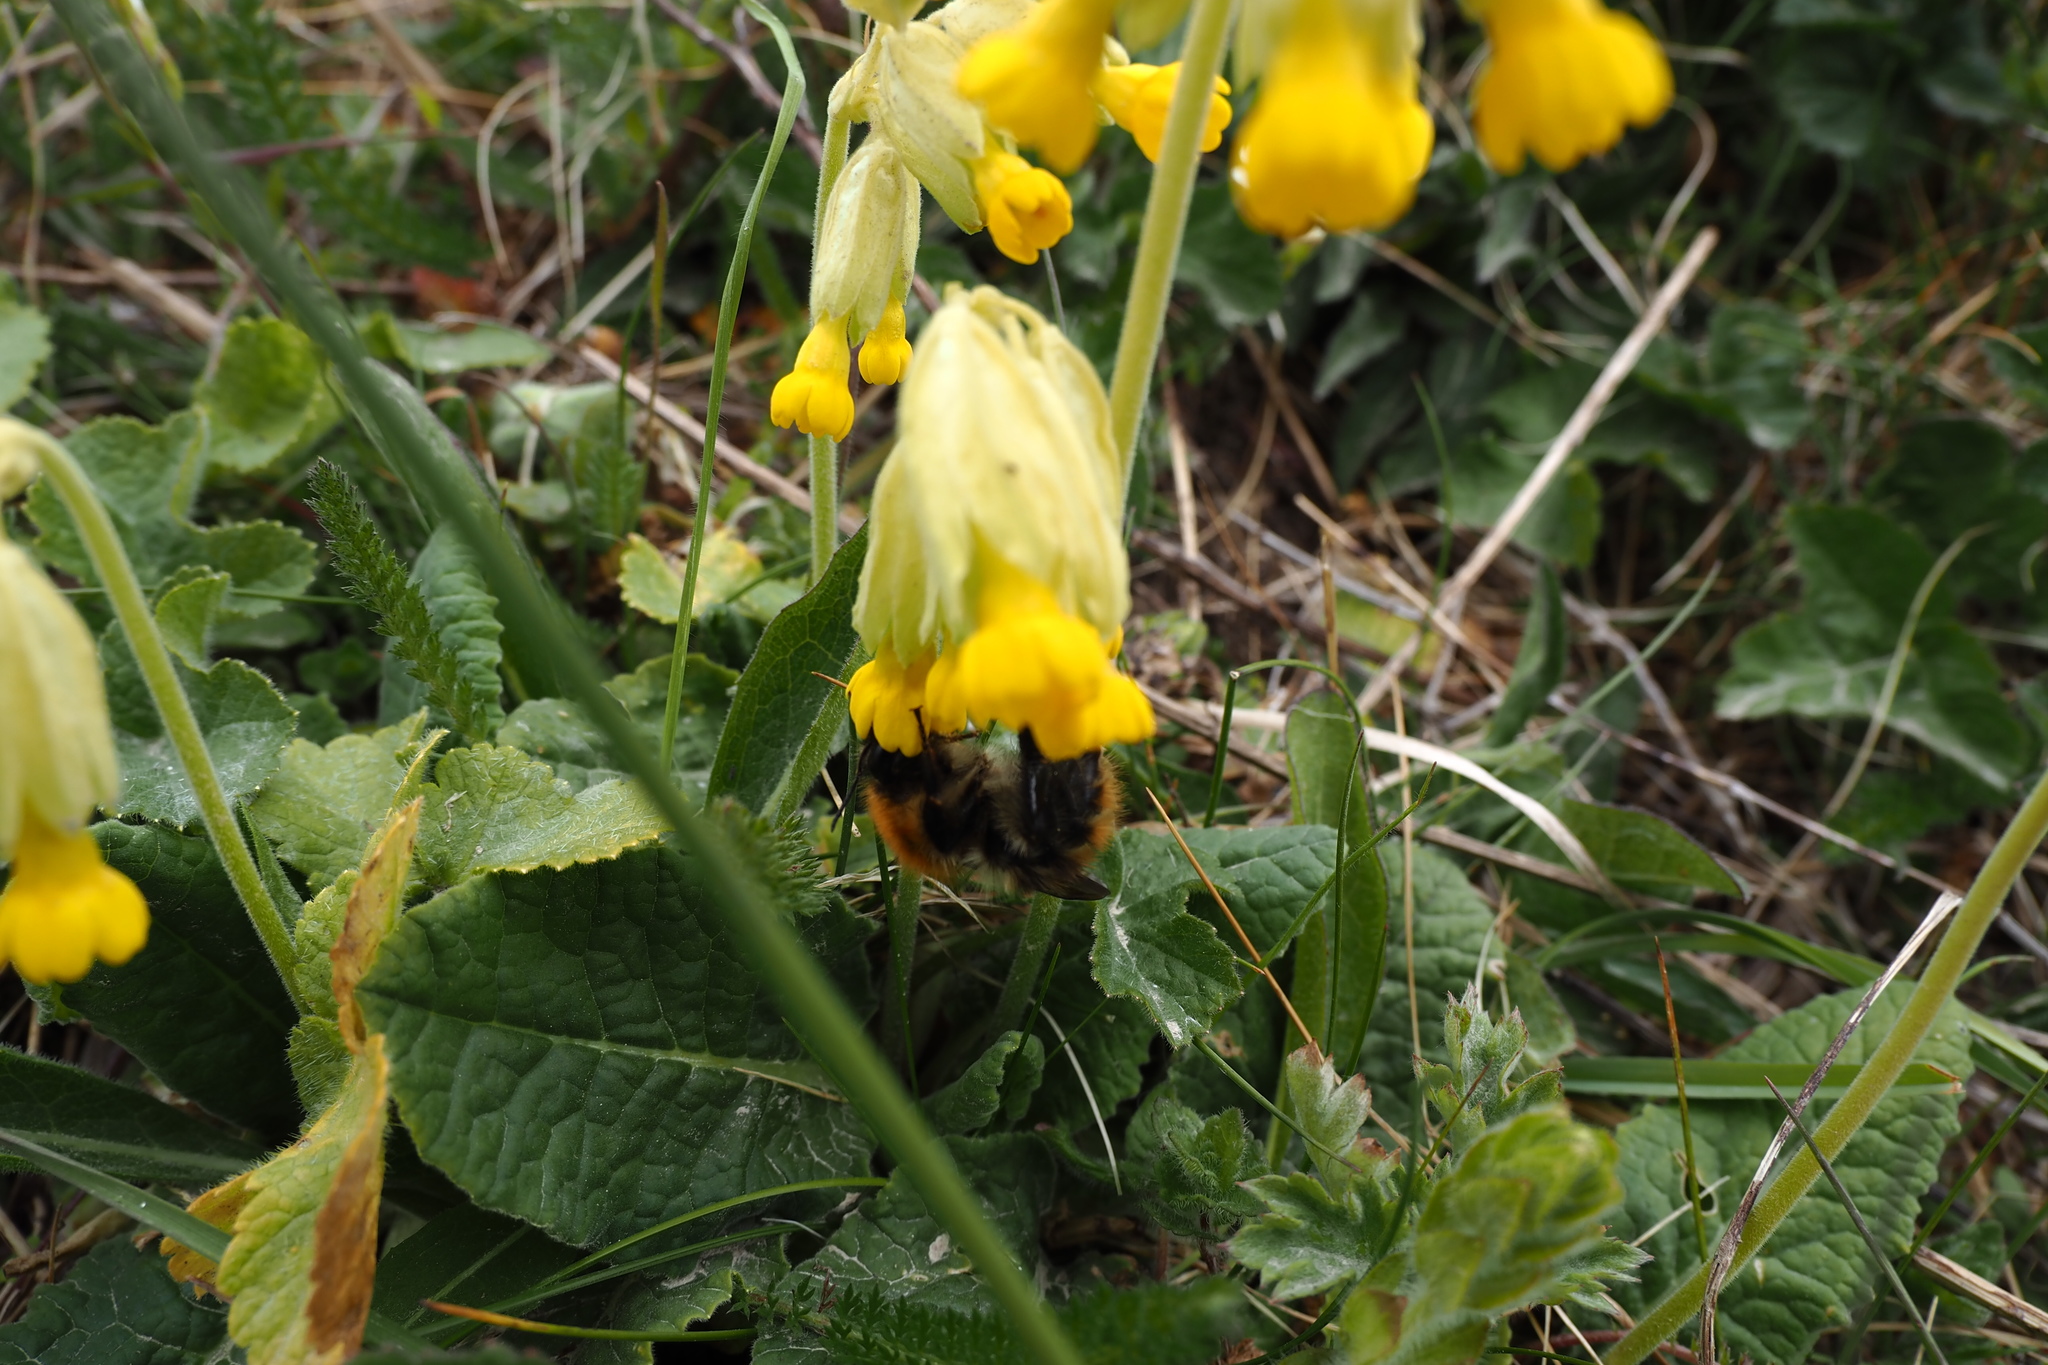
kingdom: Animalia
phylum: Arthropoda
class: Insecta
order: Hymenoptera
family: Apidae
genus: Bombus
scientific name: Bombus pascuorum
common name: Common carder bee
